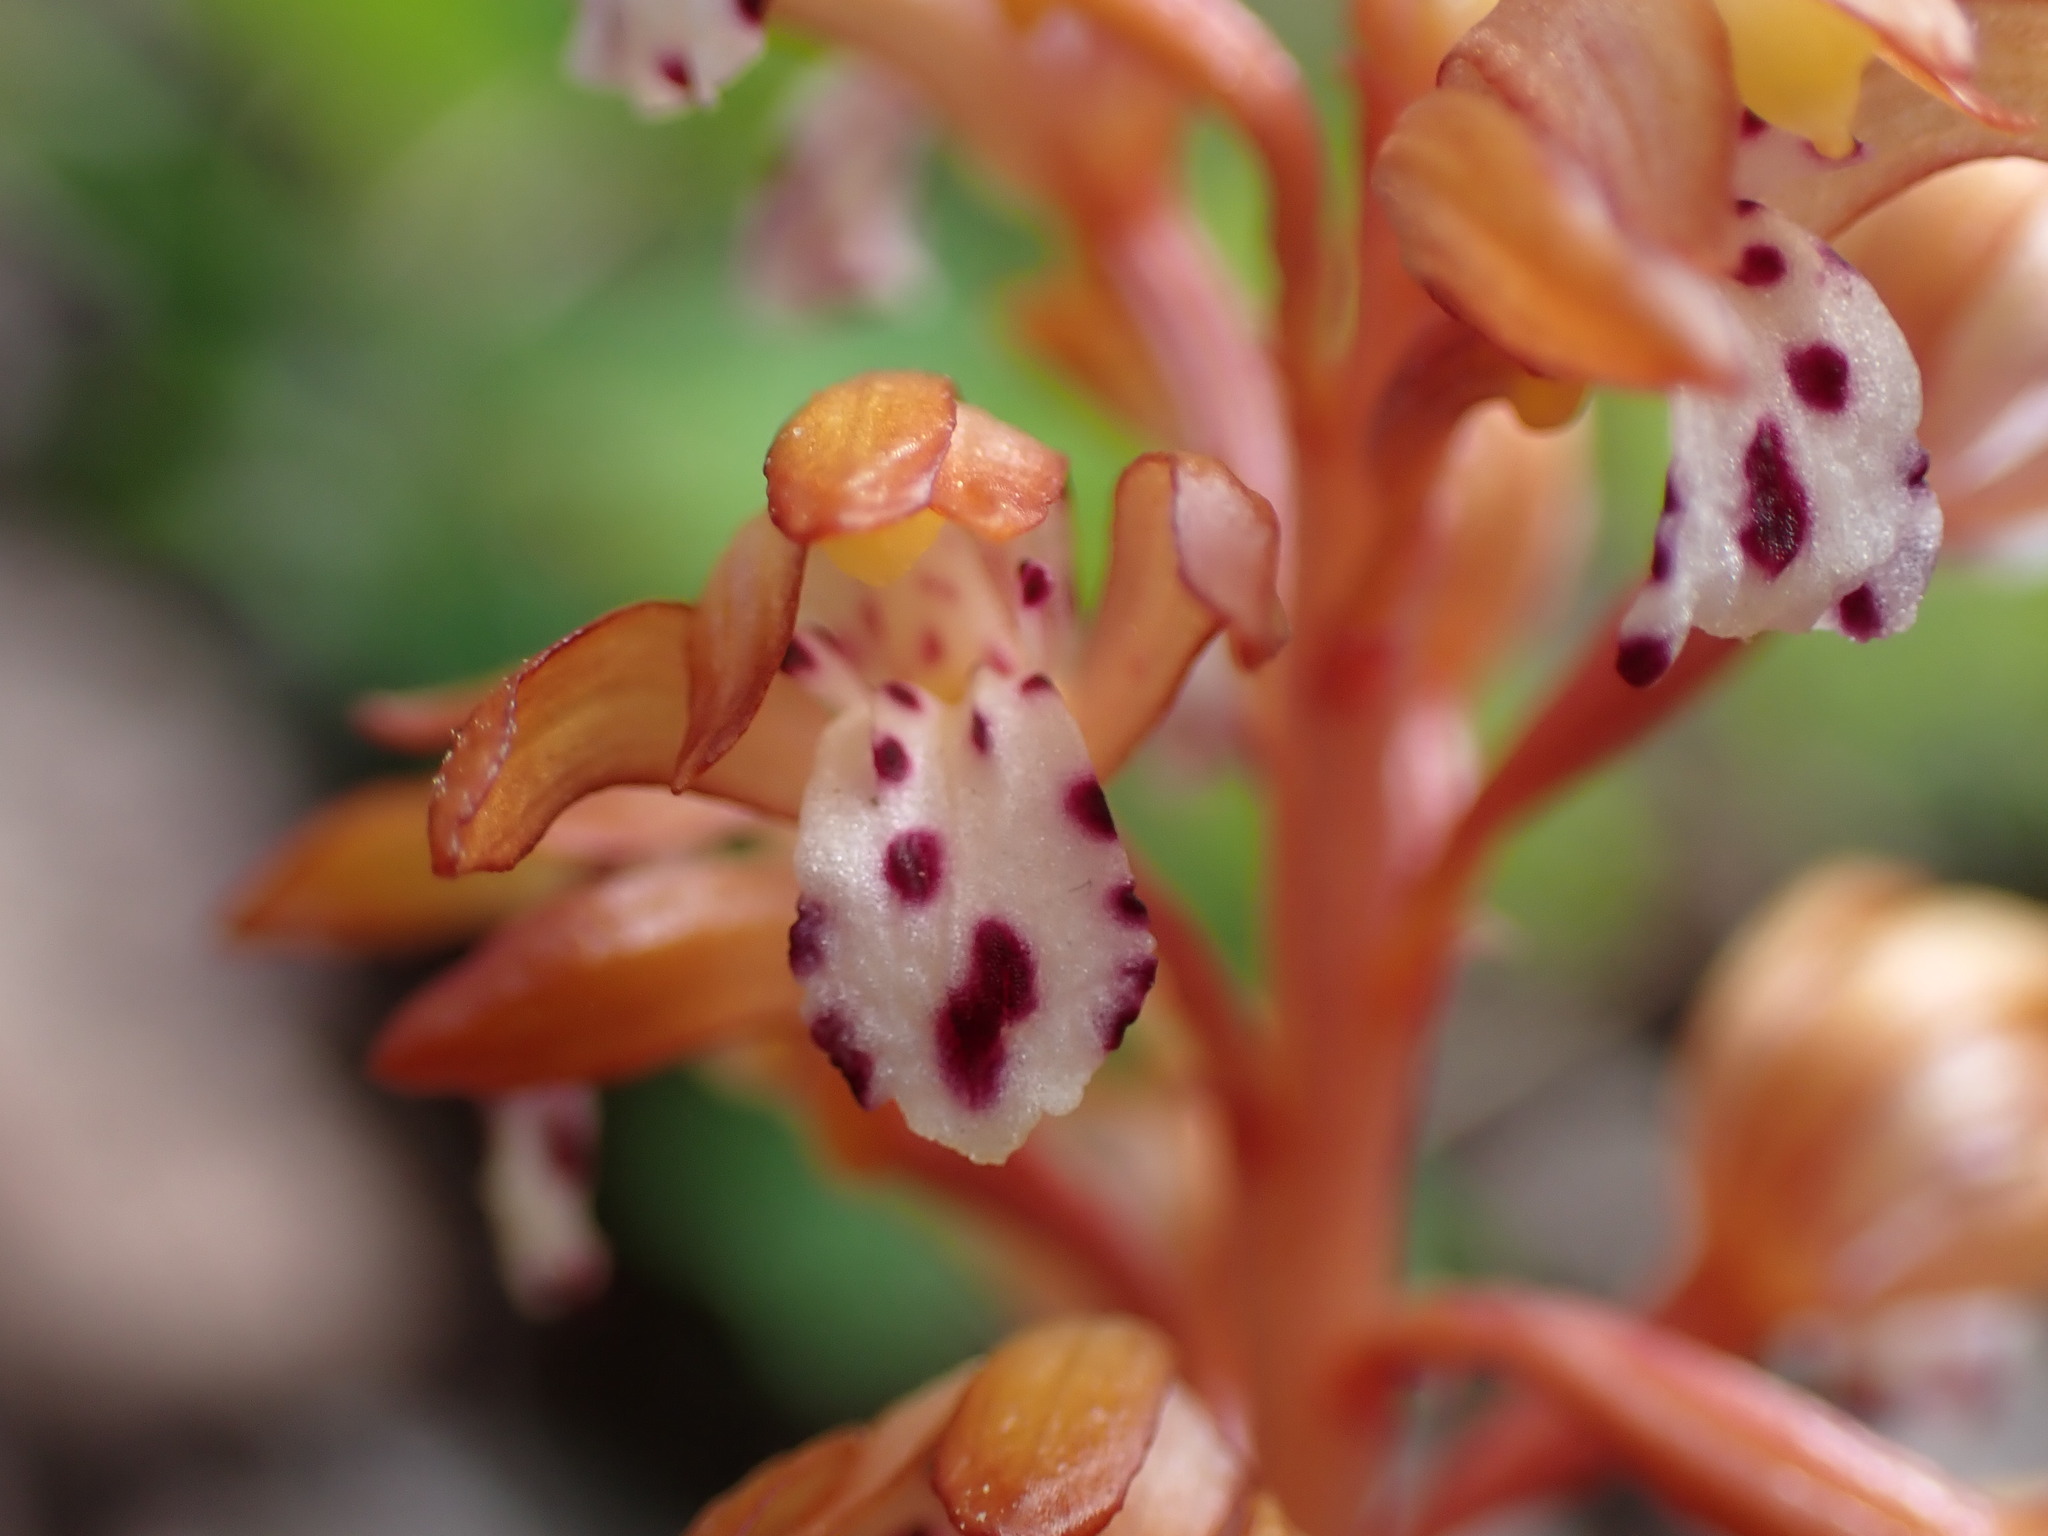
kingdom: Plantae
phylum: Tracheophyta
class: Liliopsida
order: Asparagales
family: Orchidaceae
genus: Corallorhiza
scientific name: Corallorhiza maculata
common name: Spotted coralroot
